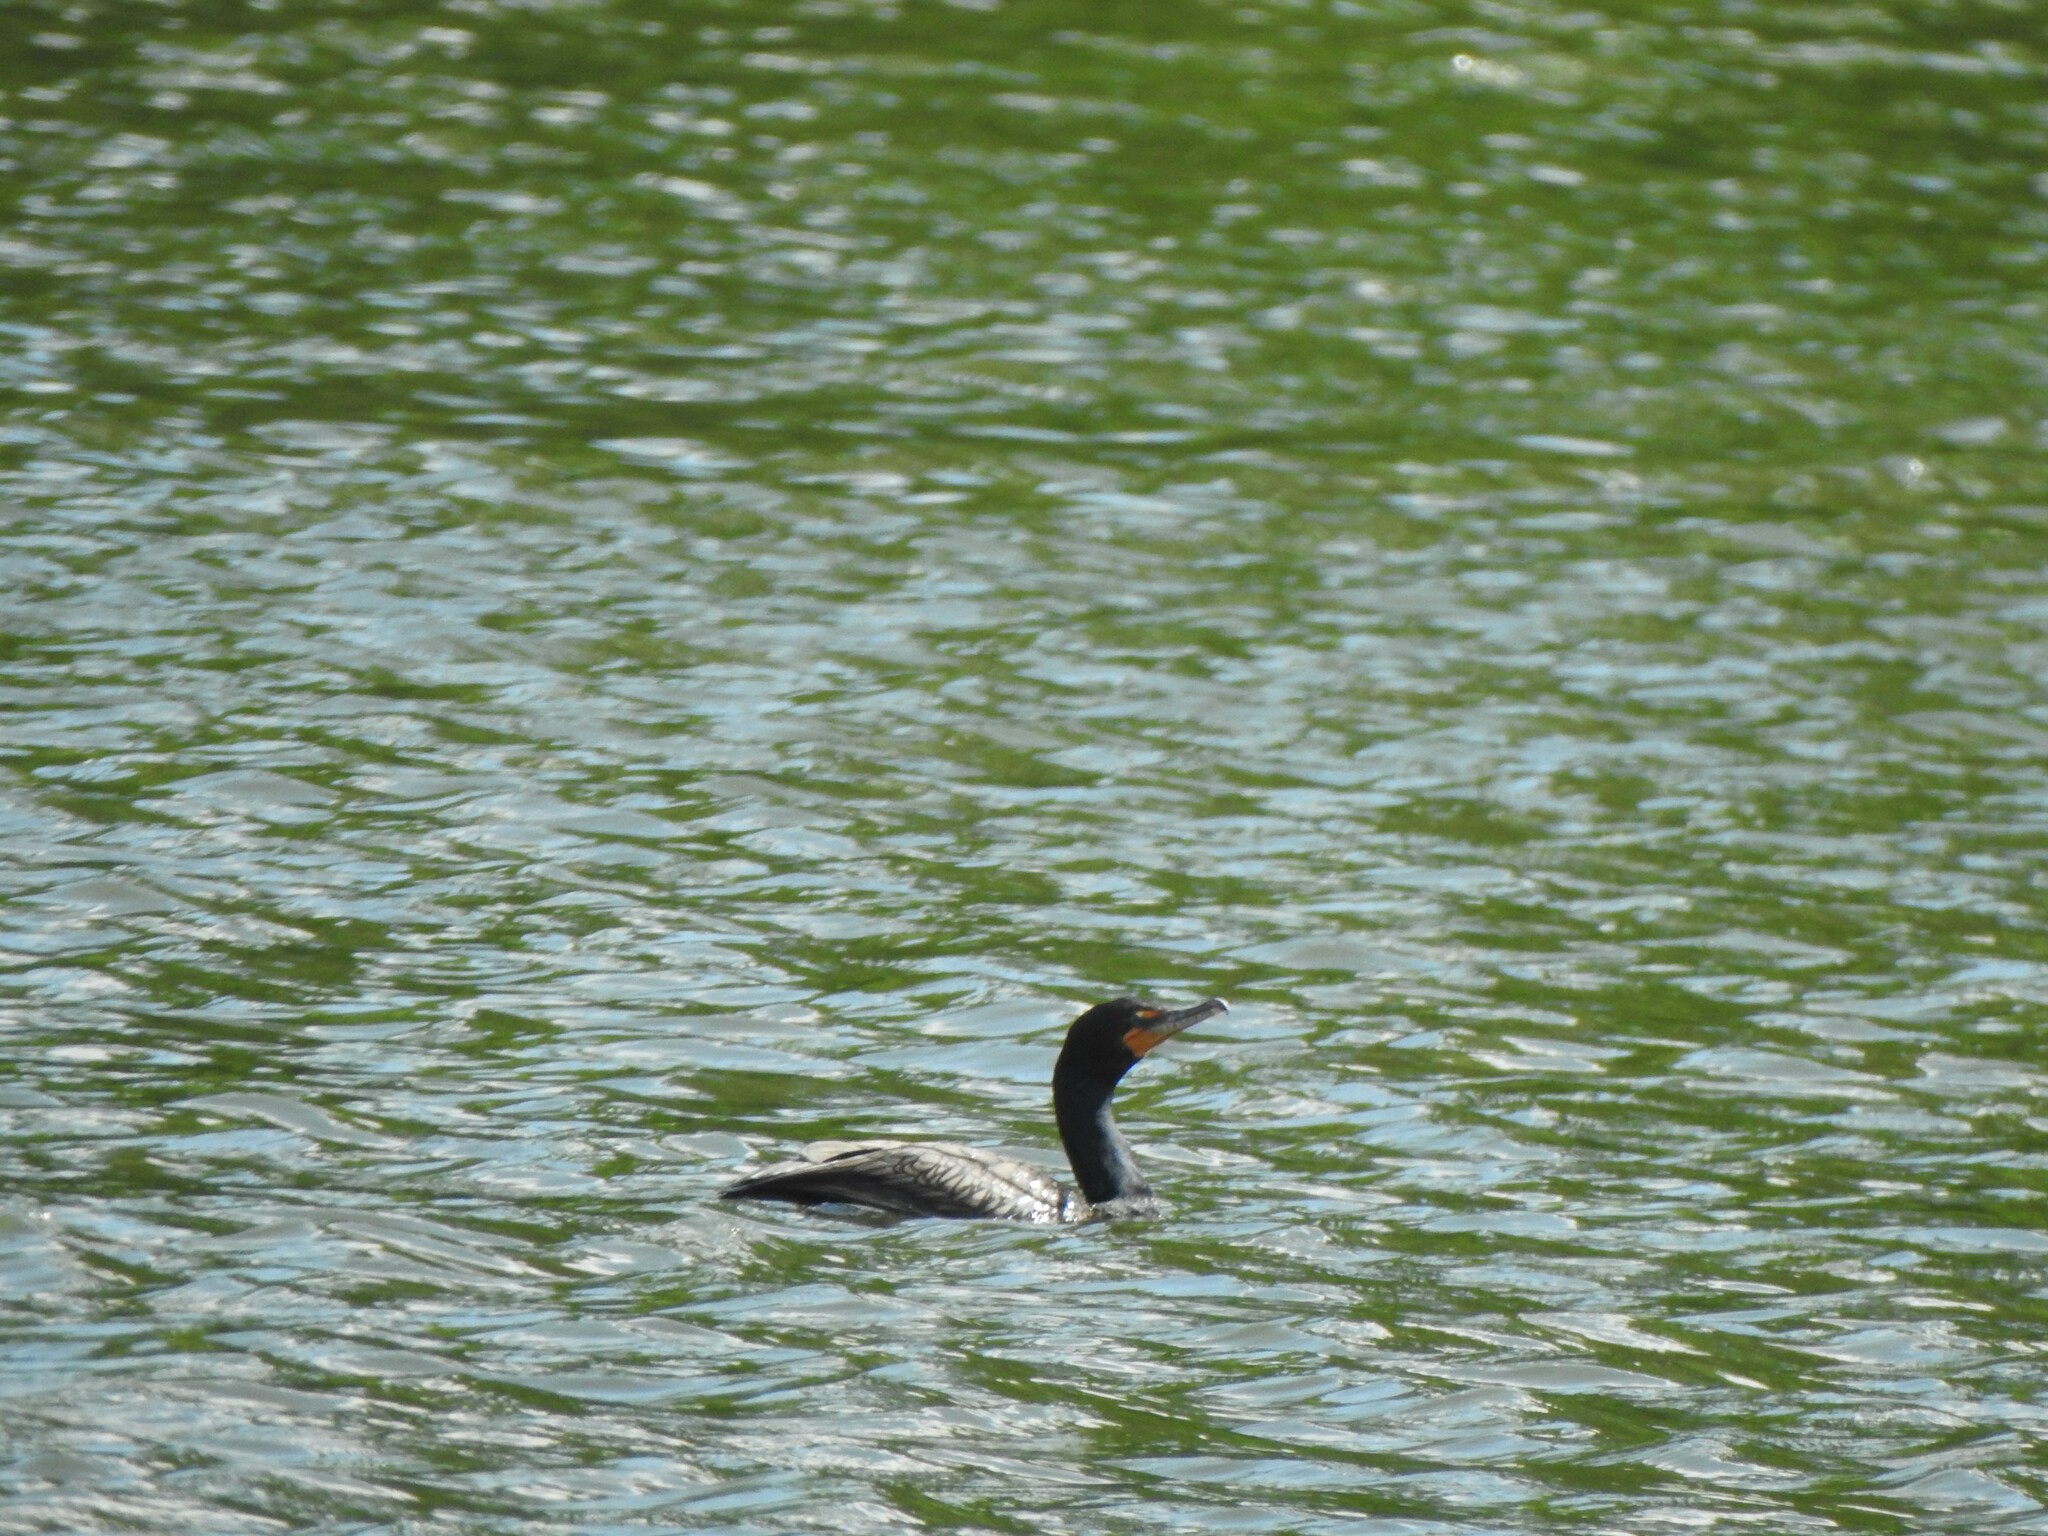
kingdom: Animalia
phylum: Chordata
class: Aves
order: Suliformes
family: Phalacrocoracidae
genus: Phalacrocorax
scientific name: Phalacrocorax auritus
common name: Double-crested cormorant
